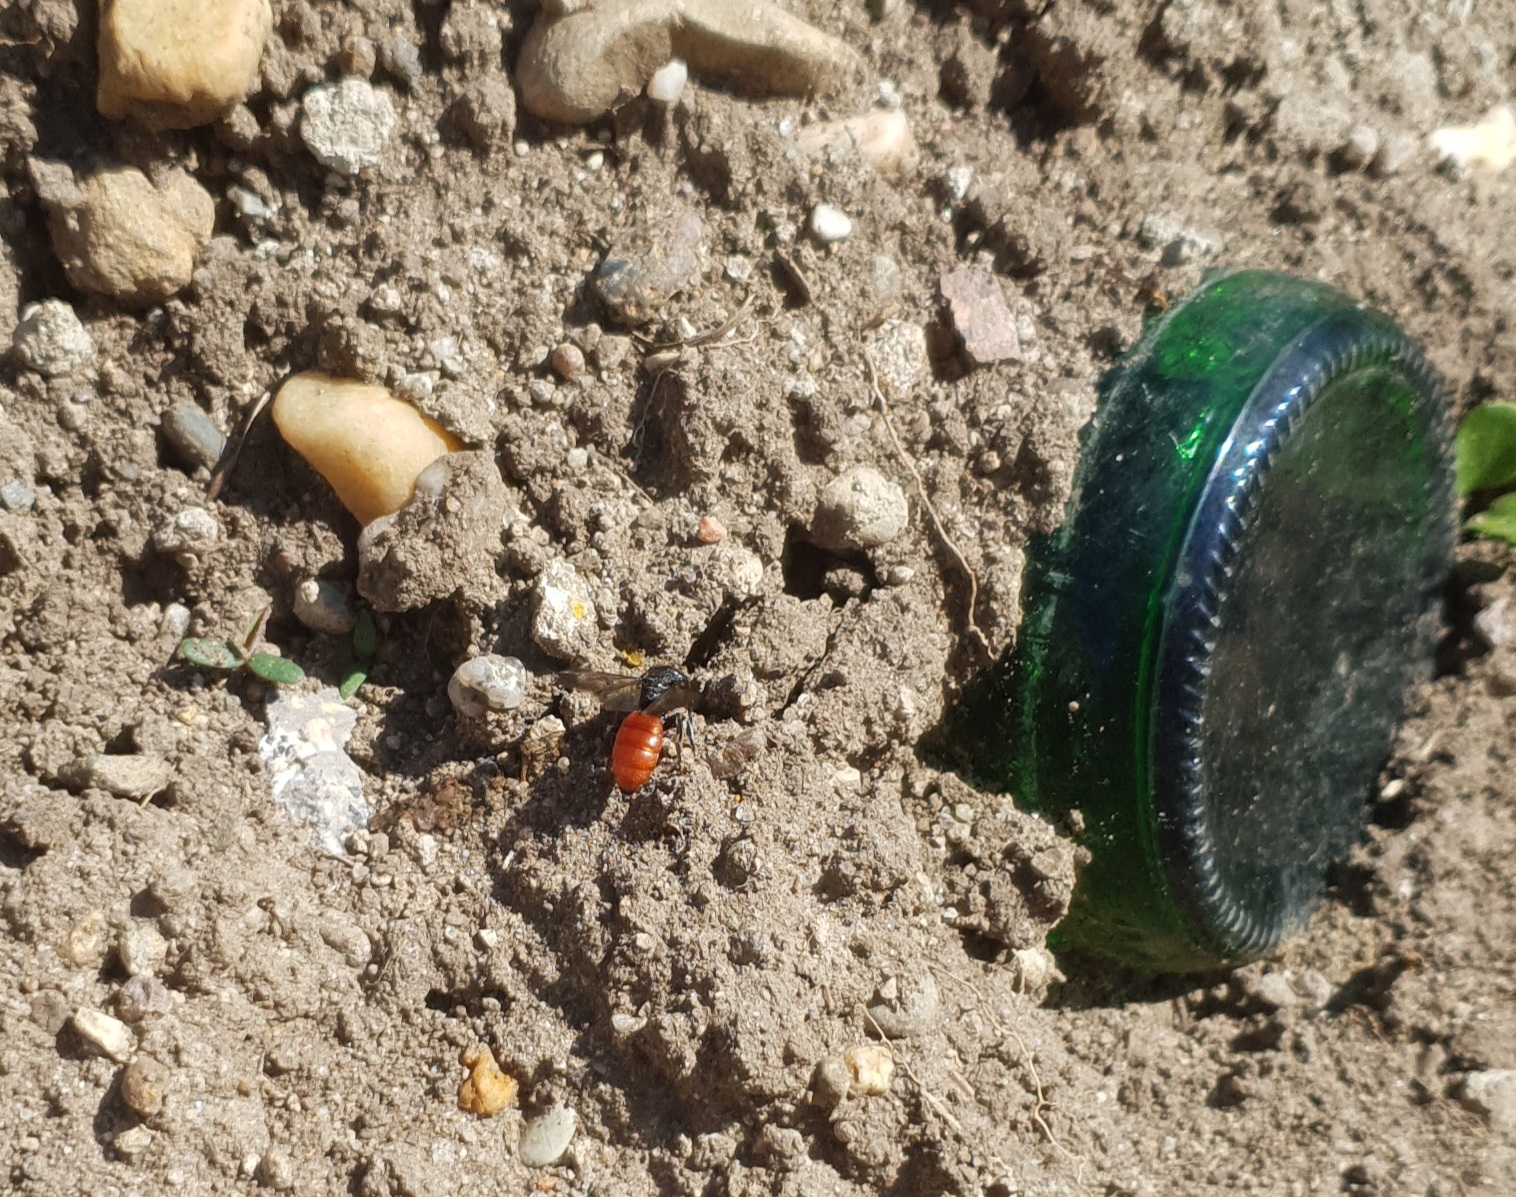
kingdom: Animalia
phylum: Arthropoda
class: Insecta
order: Hymenoptera
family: Halictidae
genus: Sphecodes
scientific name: Sphecodes albilabris
